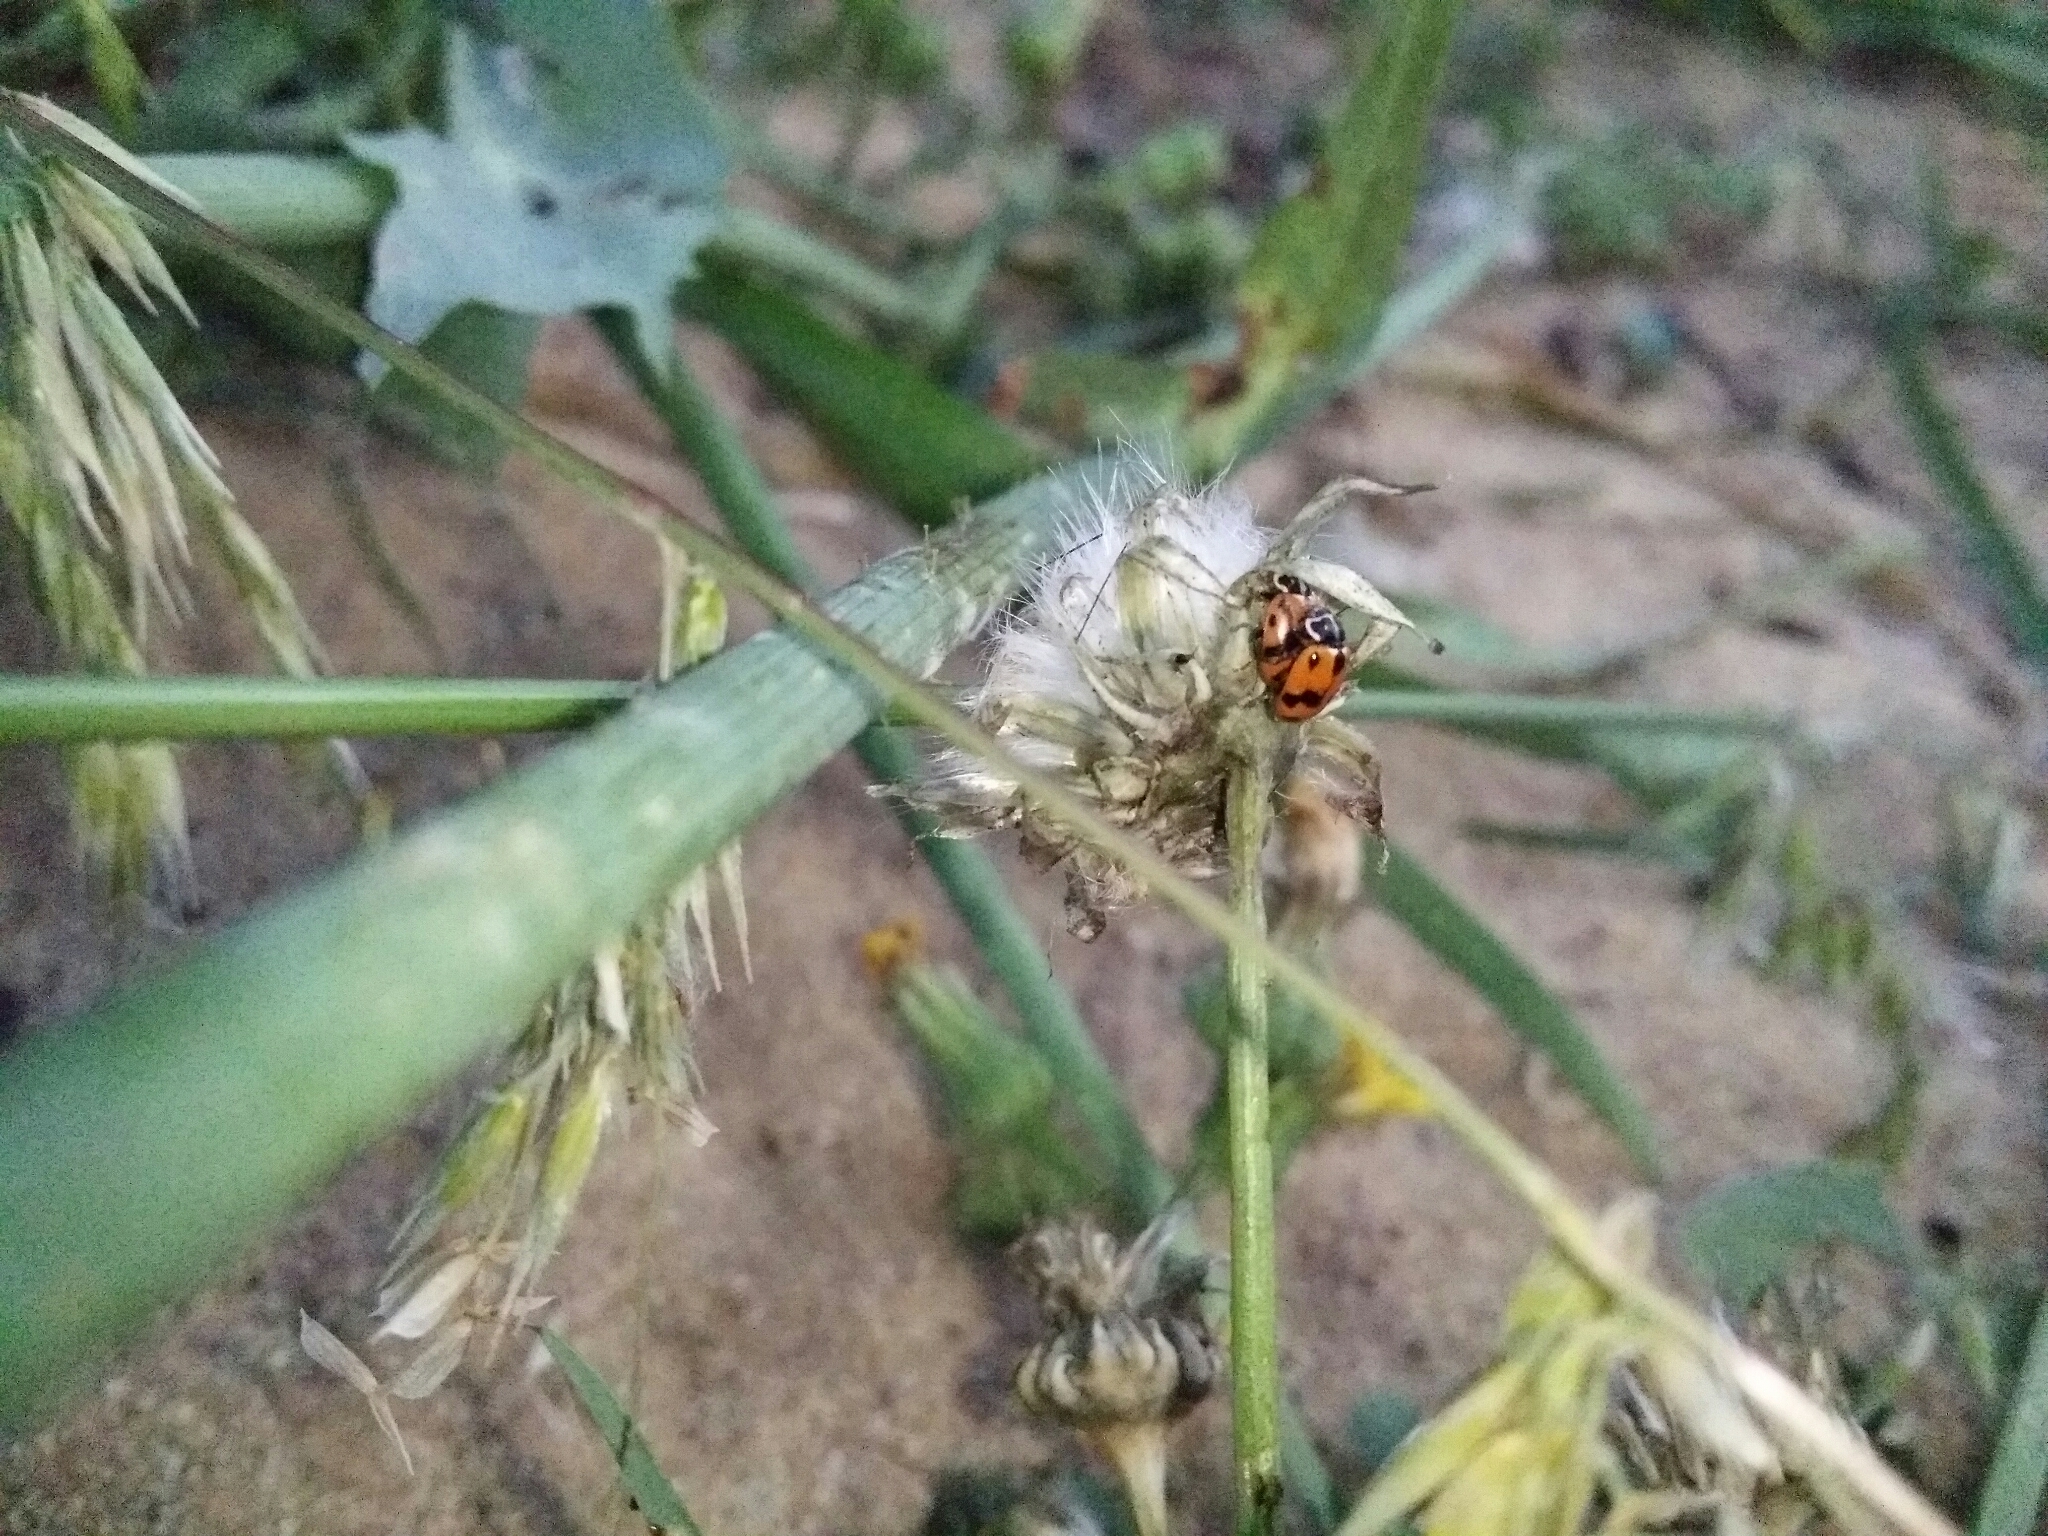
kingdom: Animalia
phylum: Arthropoda
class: Insecta
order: Coleoptera
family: Coccinellidae
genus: Hippodamia
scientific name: Hippodamia variegata
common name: Ladybird beetle
